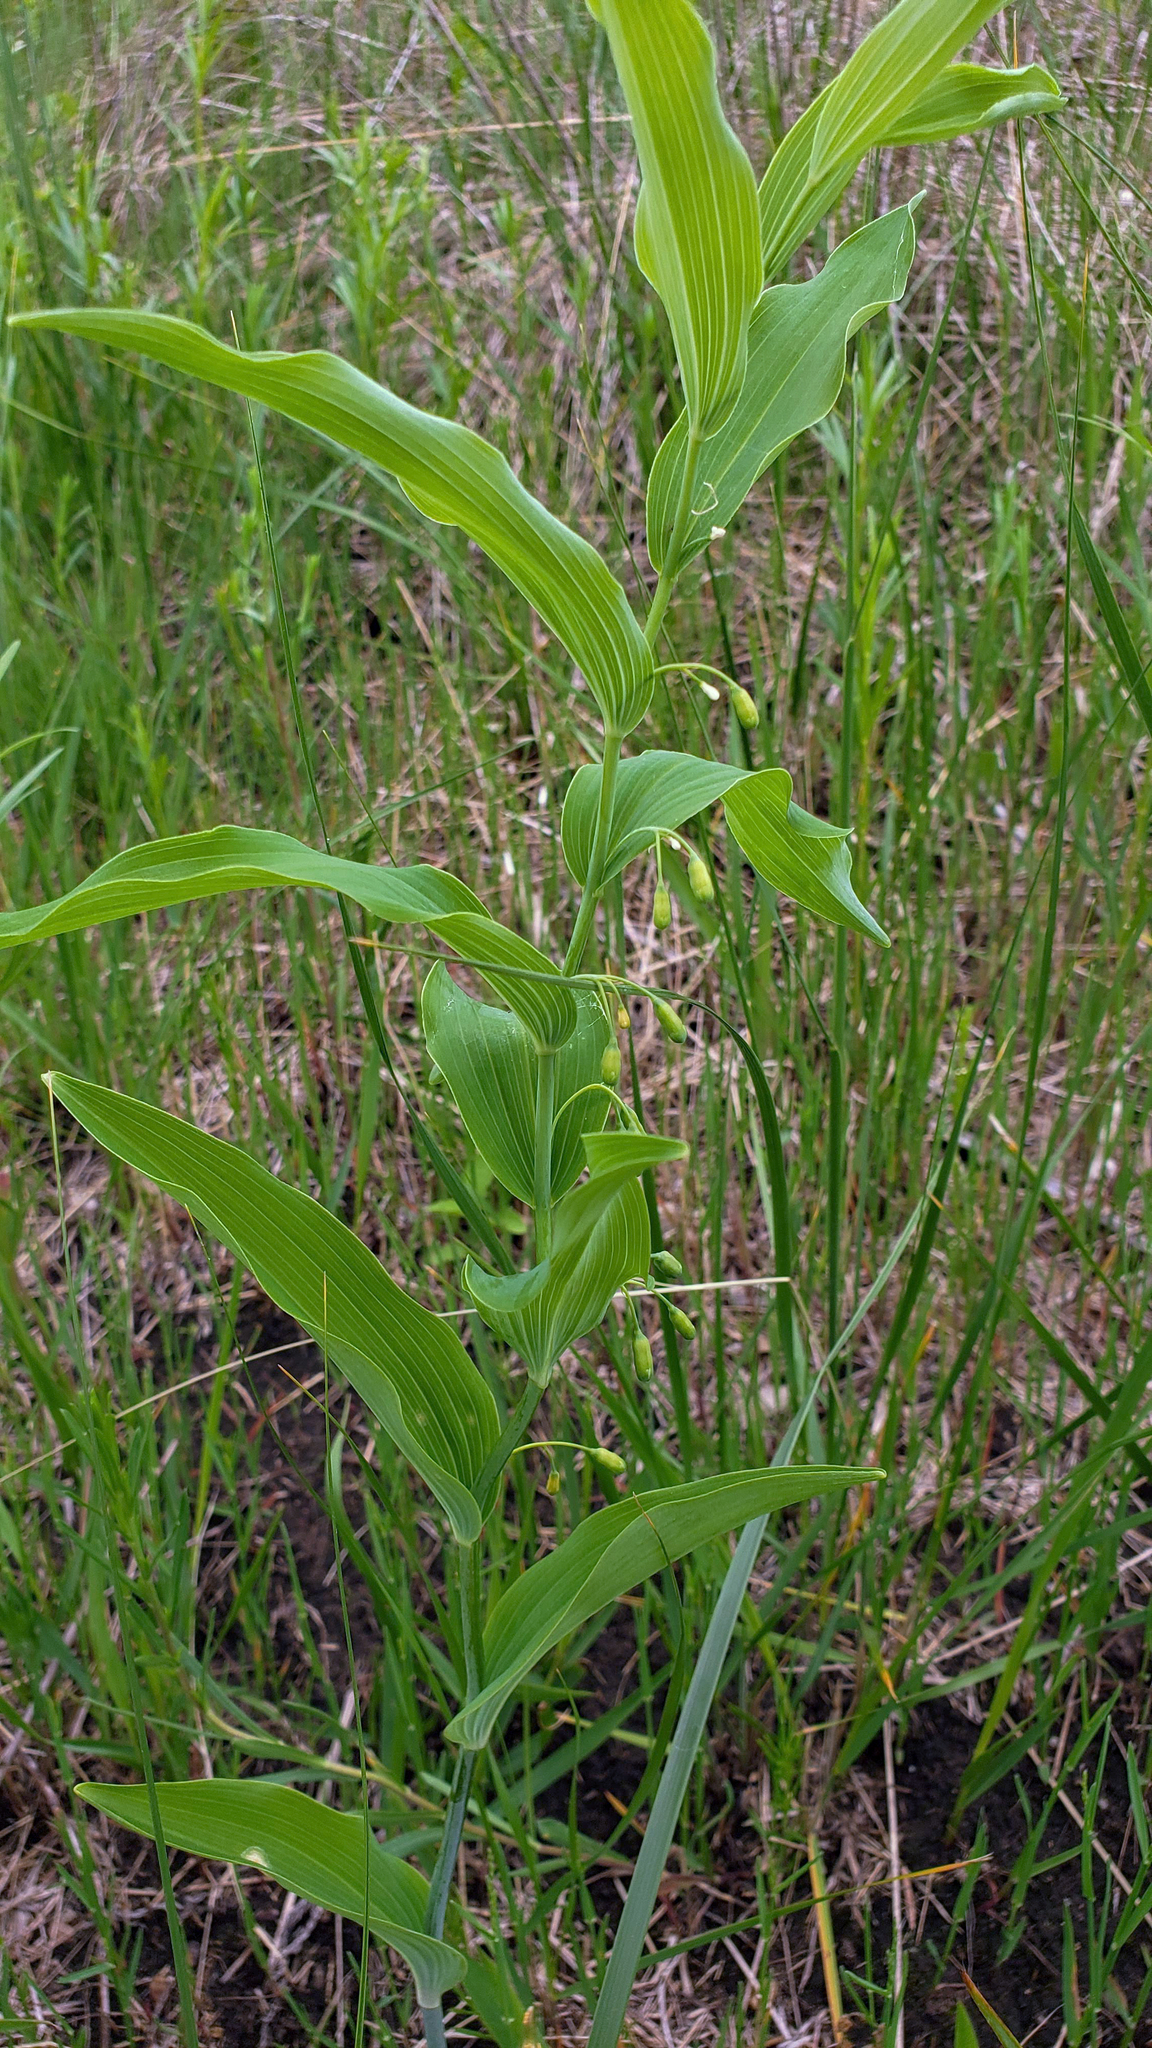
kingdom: Plantae
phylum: Tracheophyta
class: Liliopsida
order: Asparagales
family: Asparagaceae
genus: Polygonatum
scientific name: Polygonatum biflorum
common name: American solomon's-seal
